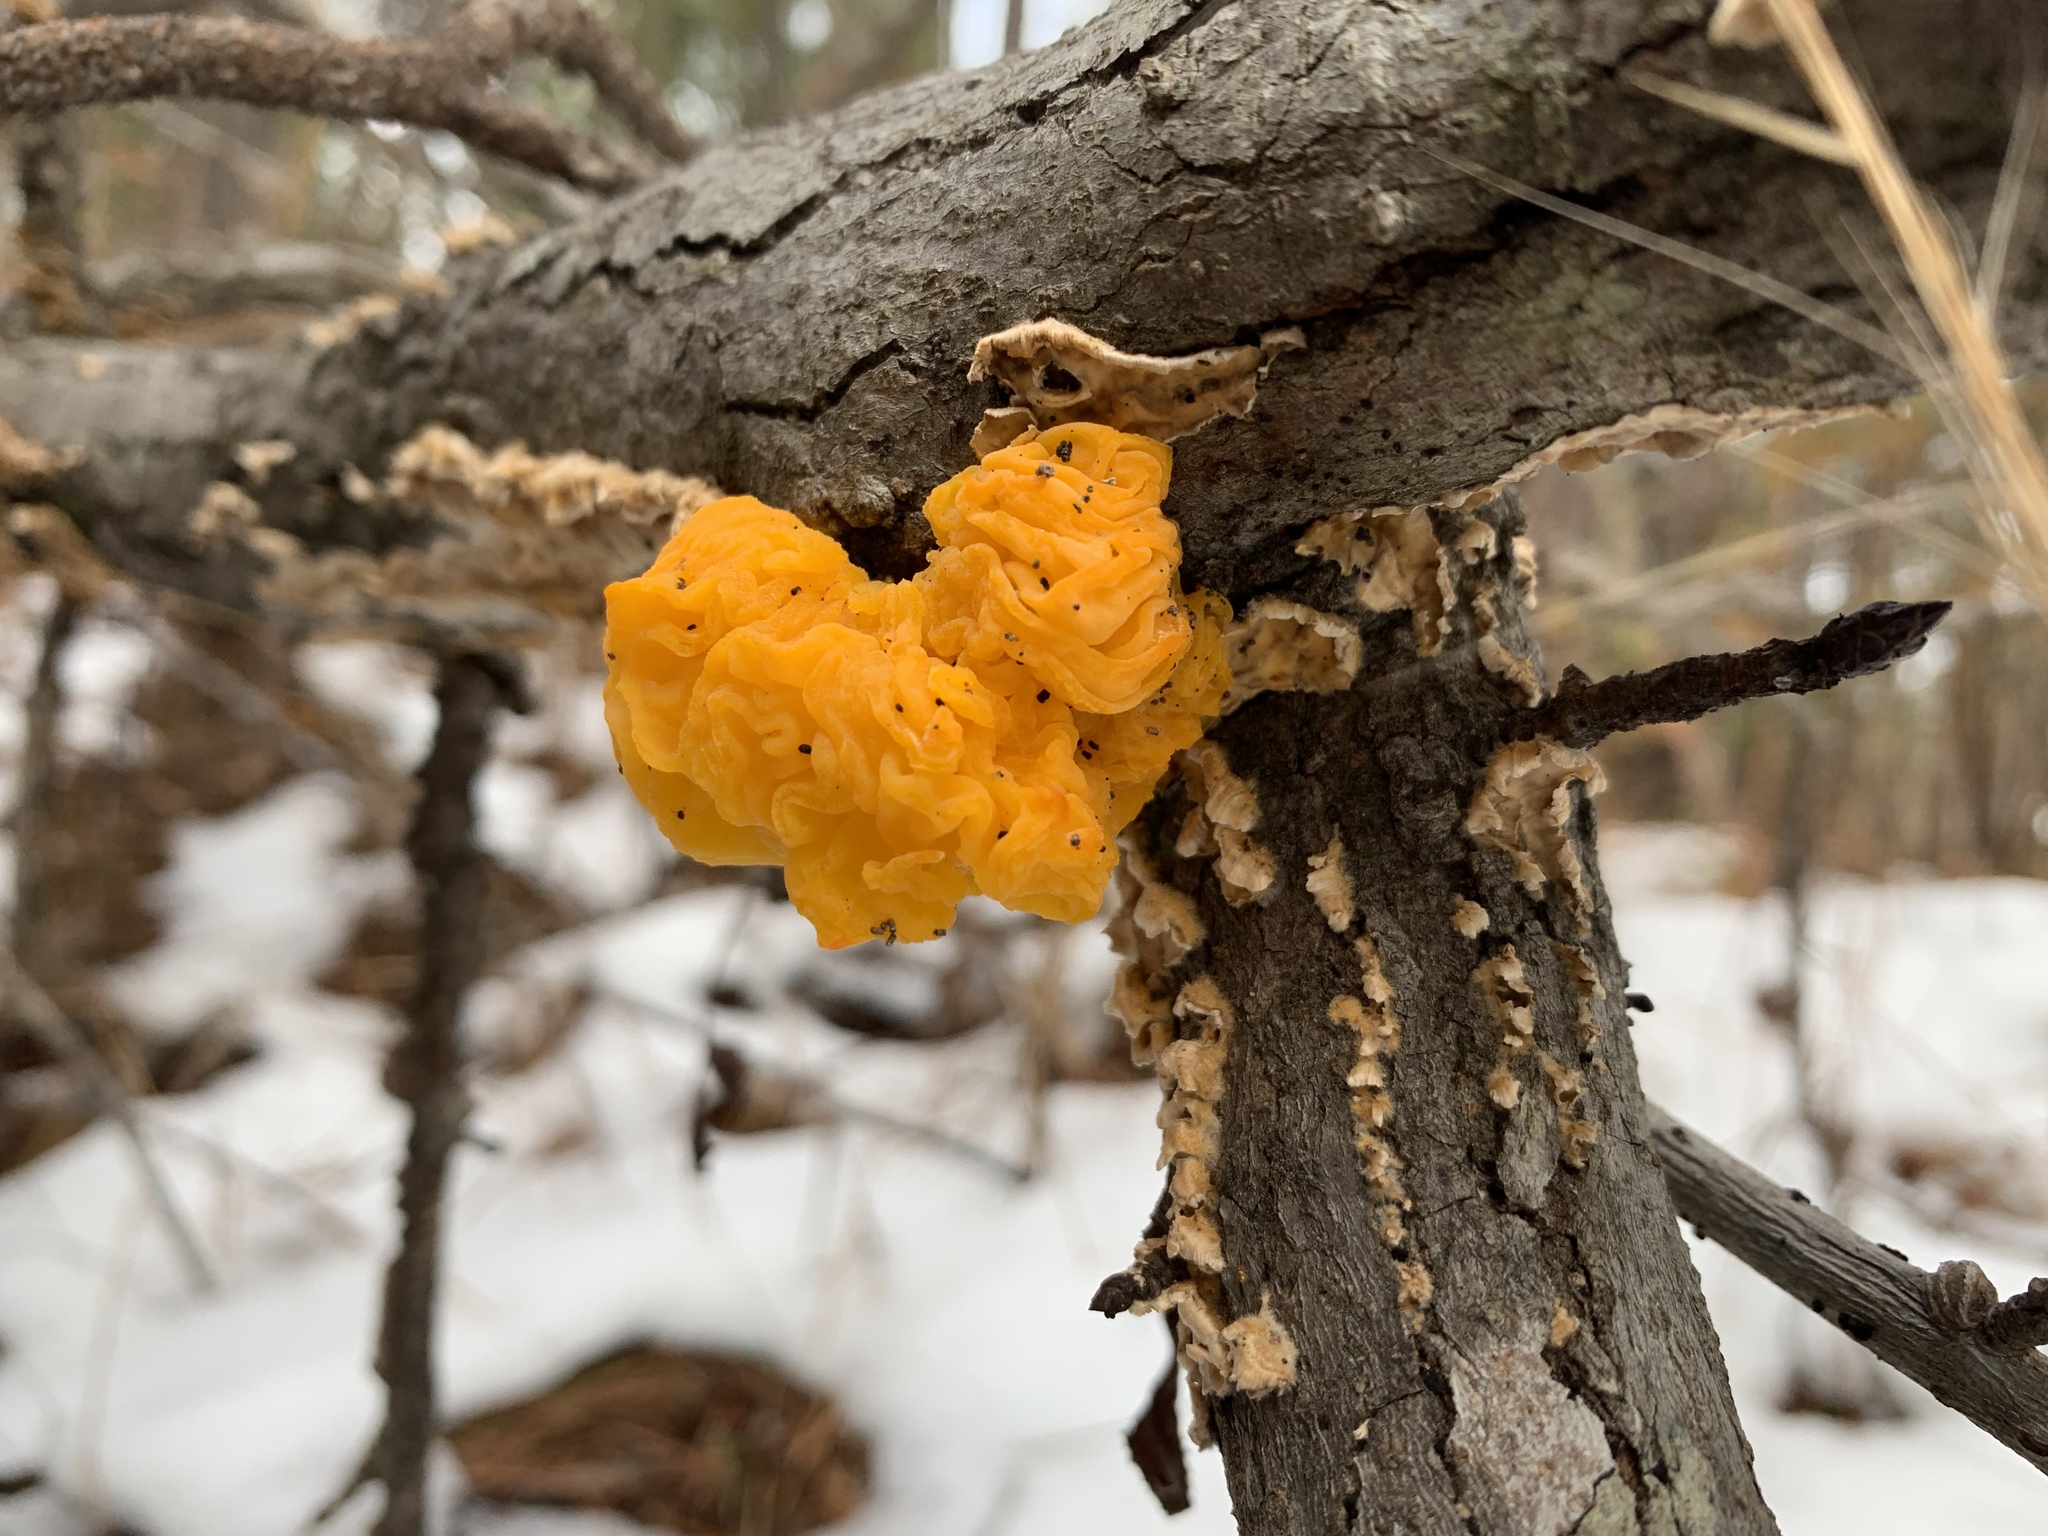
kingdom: Fungi
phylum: Basidiomycota
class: Tremellomycetes
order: Tremellales
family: Naemateliaceae
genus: Naematelia
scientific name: Naematelia aurantia
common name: Golden ear
